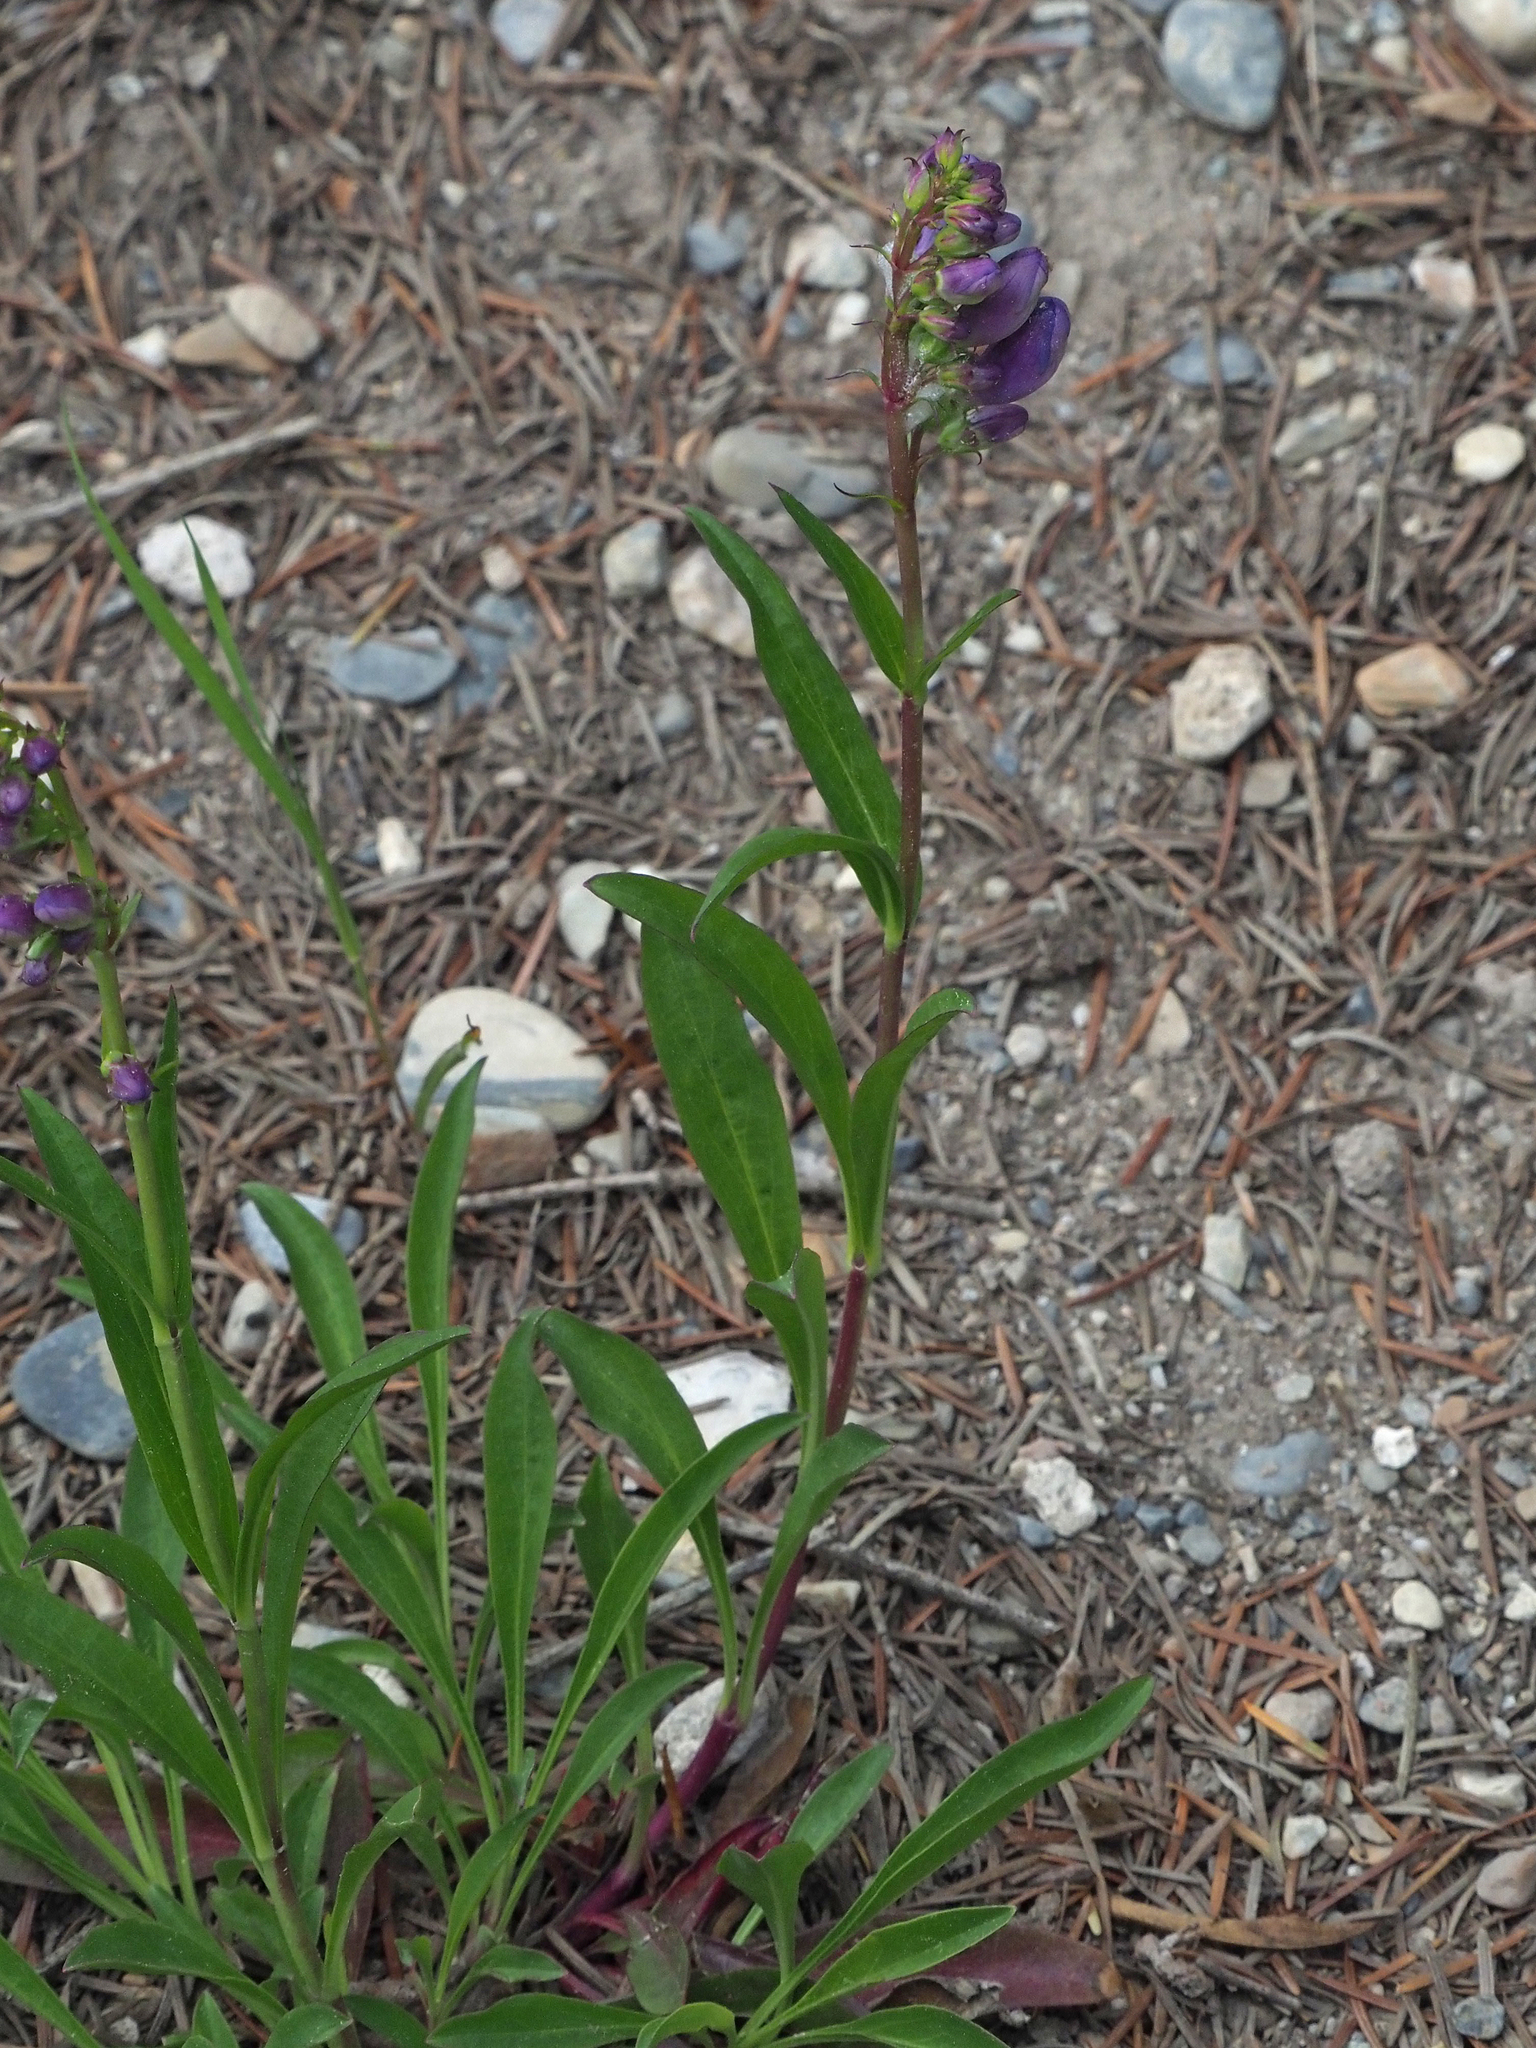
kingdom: Plantae
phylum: Tracheophyta
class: Magnoliopsida
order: Lamiales
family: Plantaginaceae
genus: Penstemon
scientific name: Penstemon strictus
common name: Rocky mountain penstemon
